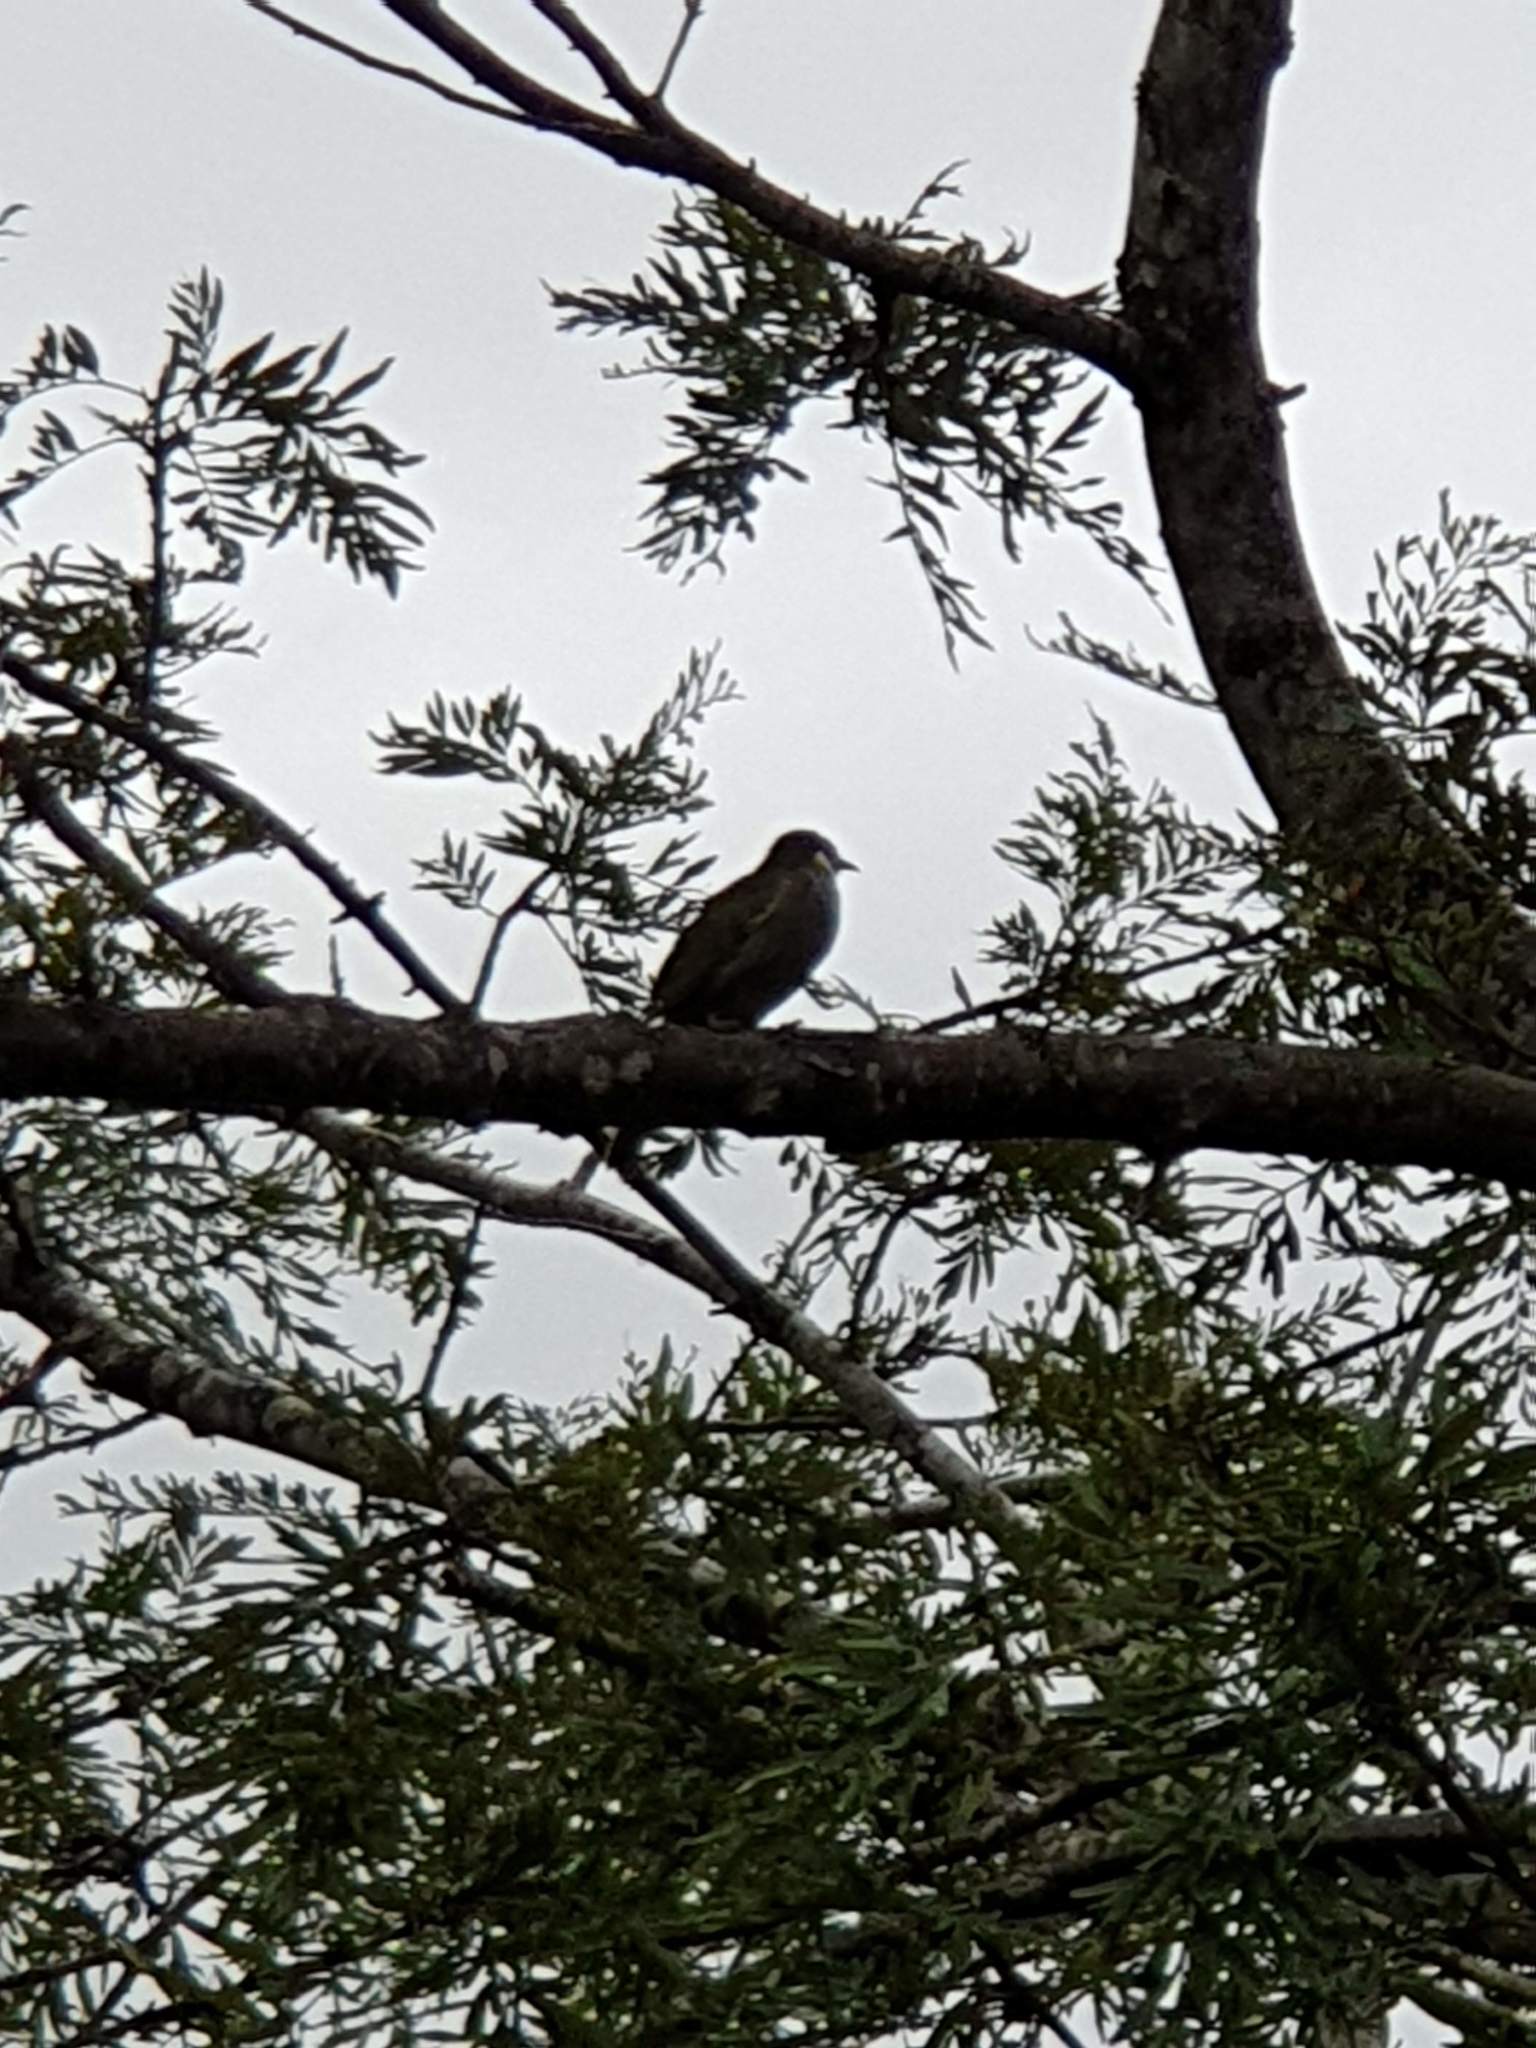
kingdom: Animalia
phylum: Chordata
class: Aves
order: Passeriformes
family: Meliphagidae
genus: Meliphaga
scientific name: Meliphaga lewinii
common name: Lewin's honeyeater
